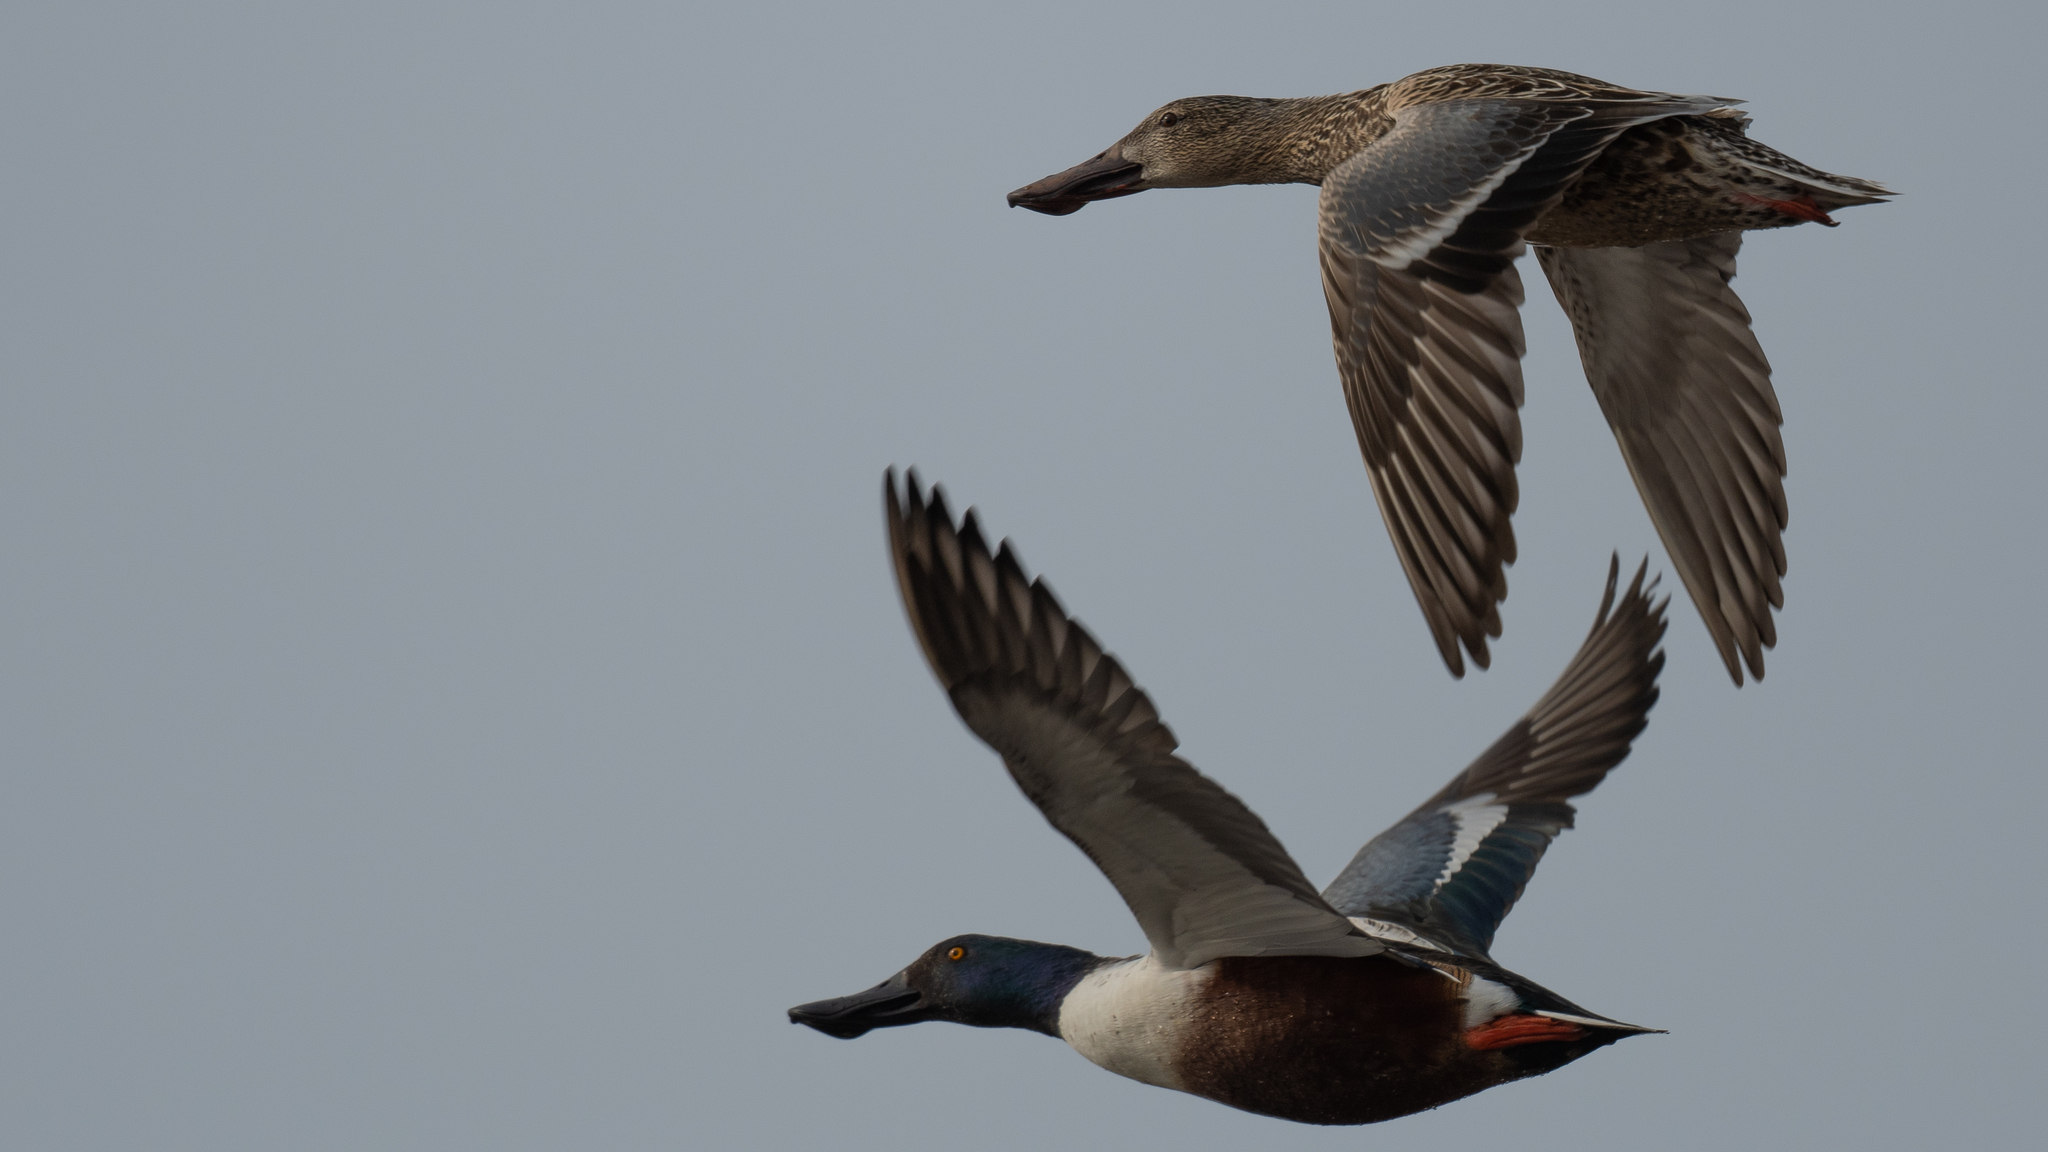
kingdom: Animalia
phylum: Chordata
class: Aves
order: Anseriformes
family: Anatidae
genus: Spatula
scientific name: Spatula clypeata
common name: Northern shoveler
